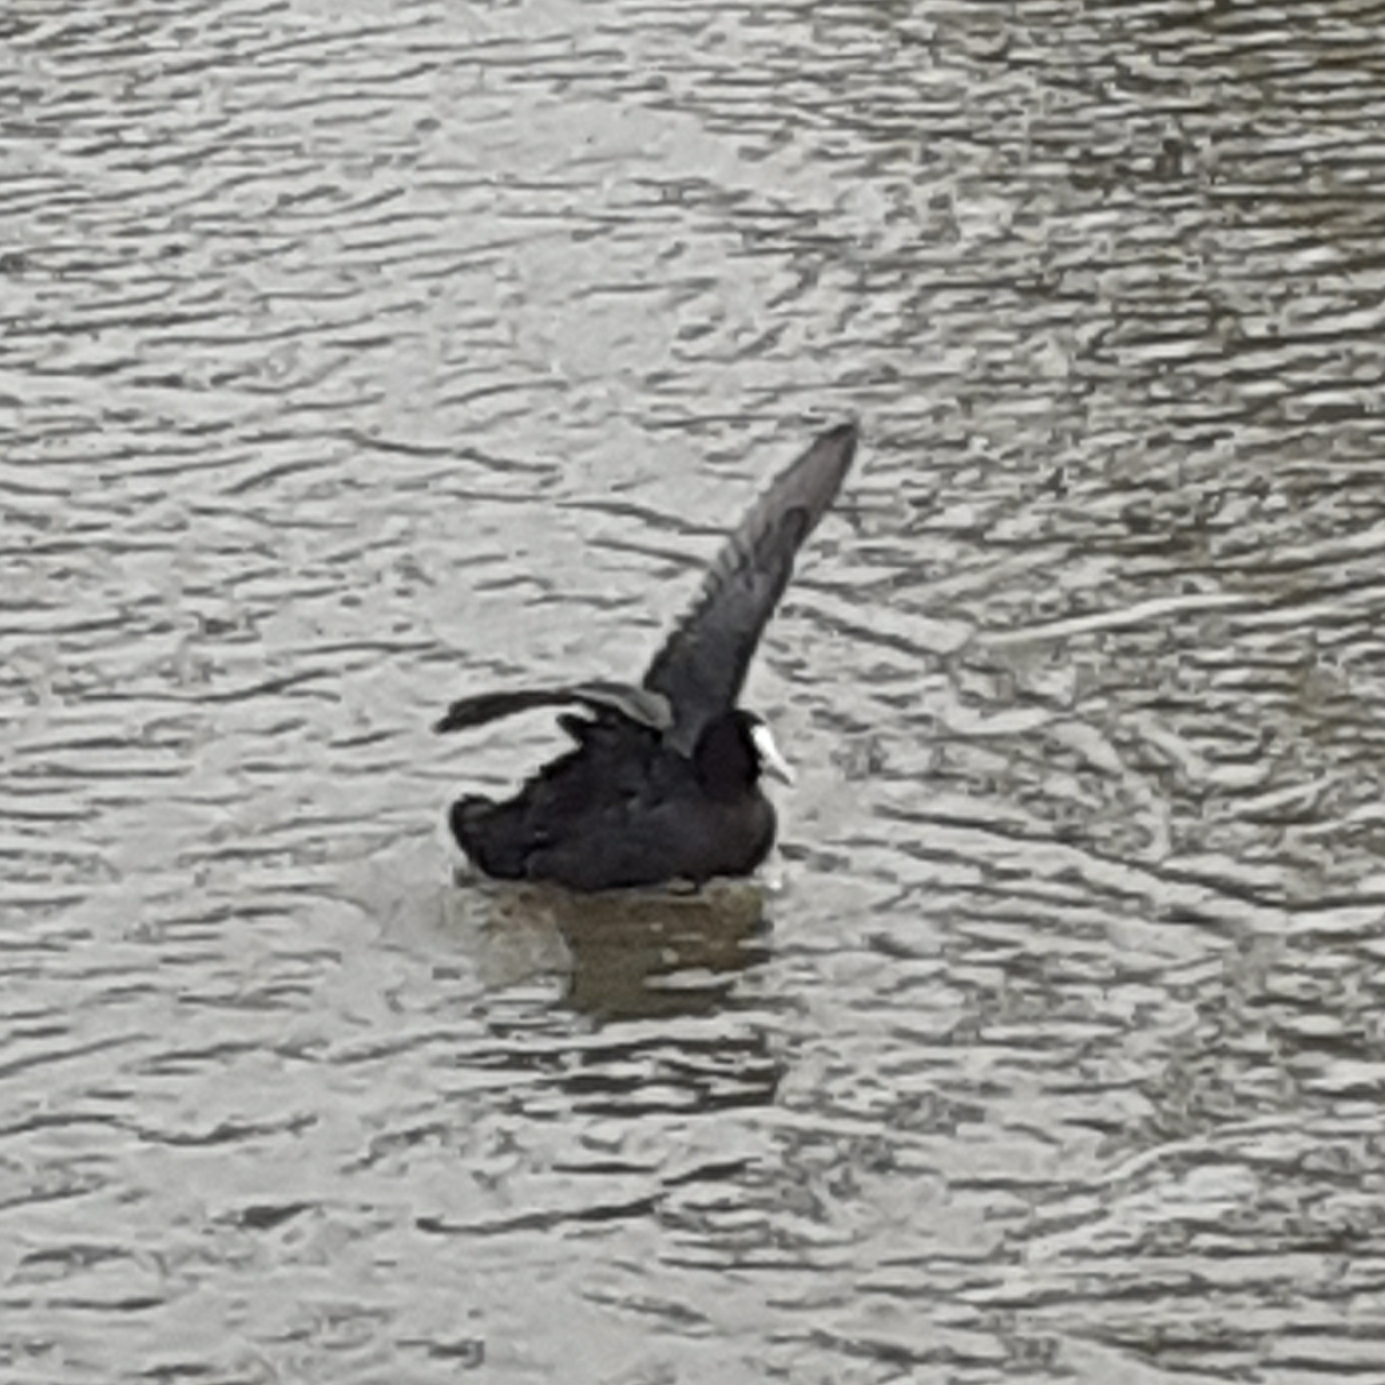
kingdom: Animalia
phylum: Chordata
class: Aves
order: Gruiformes
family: Rallidae
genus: Fulica
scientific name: Fulica atra
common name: Eurasian coot
